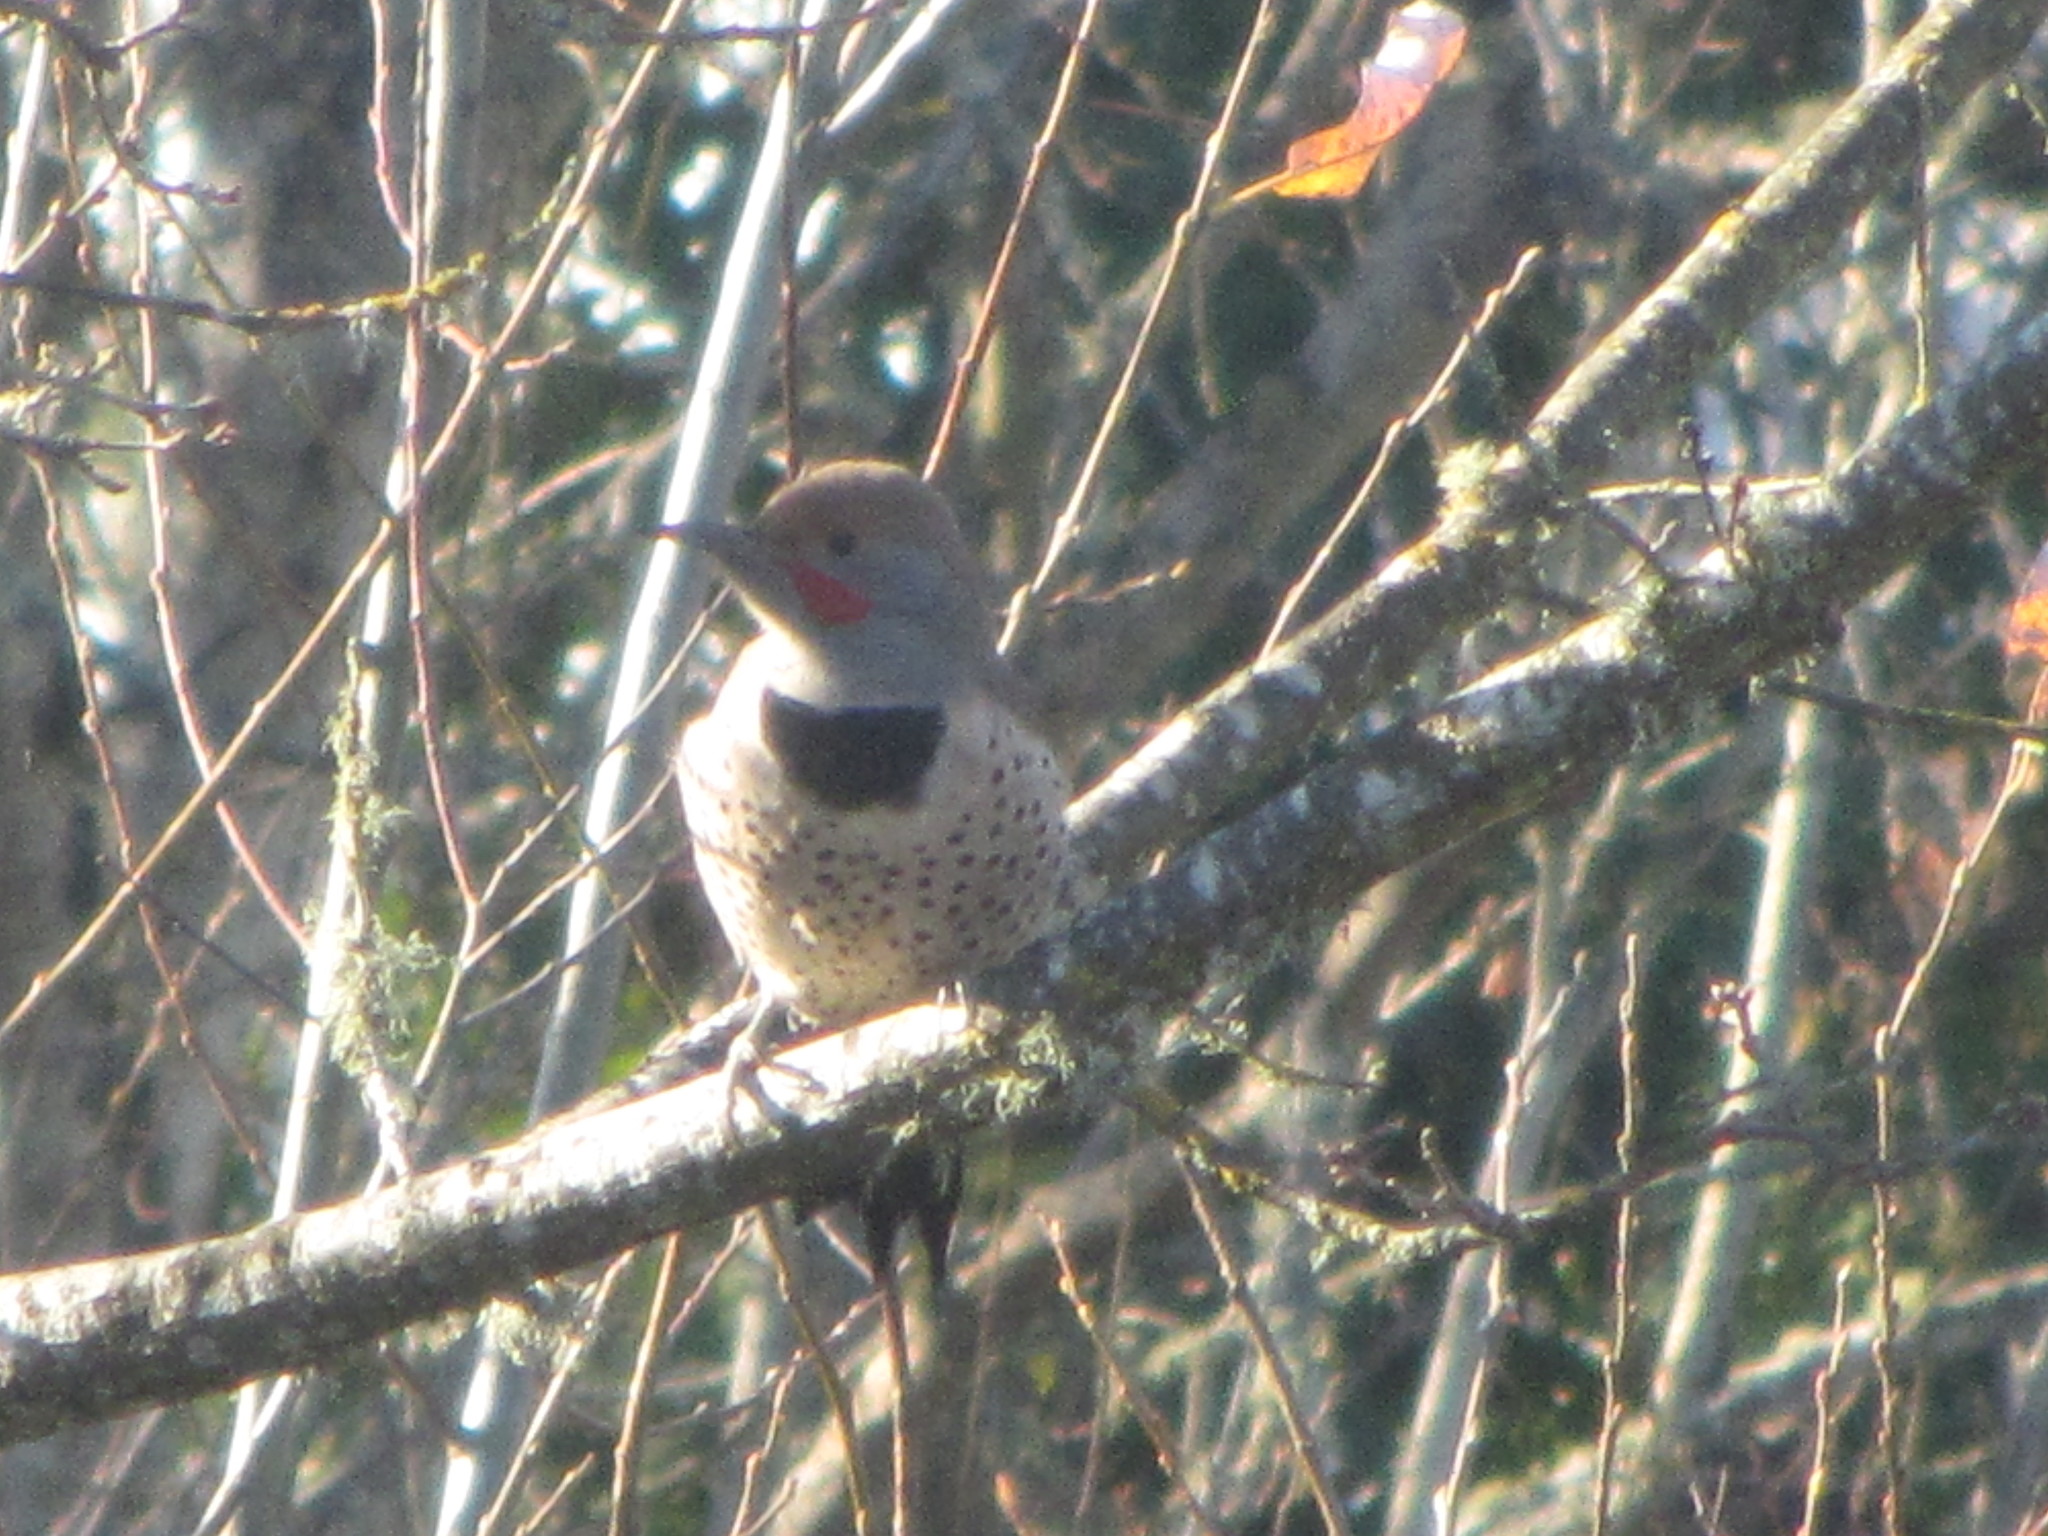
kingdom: Animalia
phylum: Chordata
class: Aves
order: Piciformes
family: Picidae
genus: Colaptes
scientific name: Colaptes auratus
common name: Northern flicker
